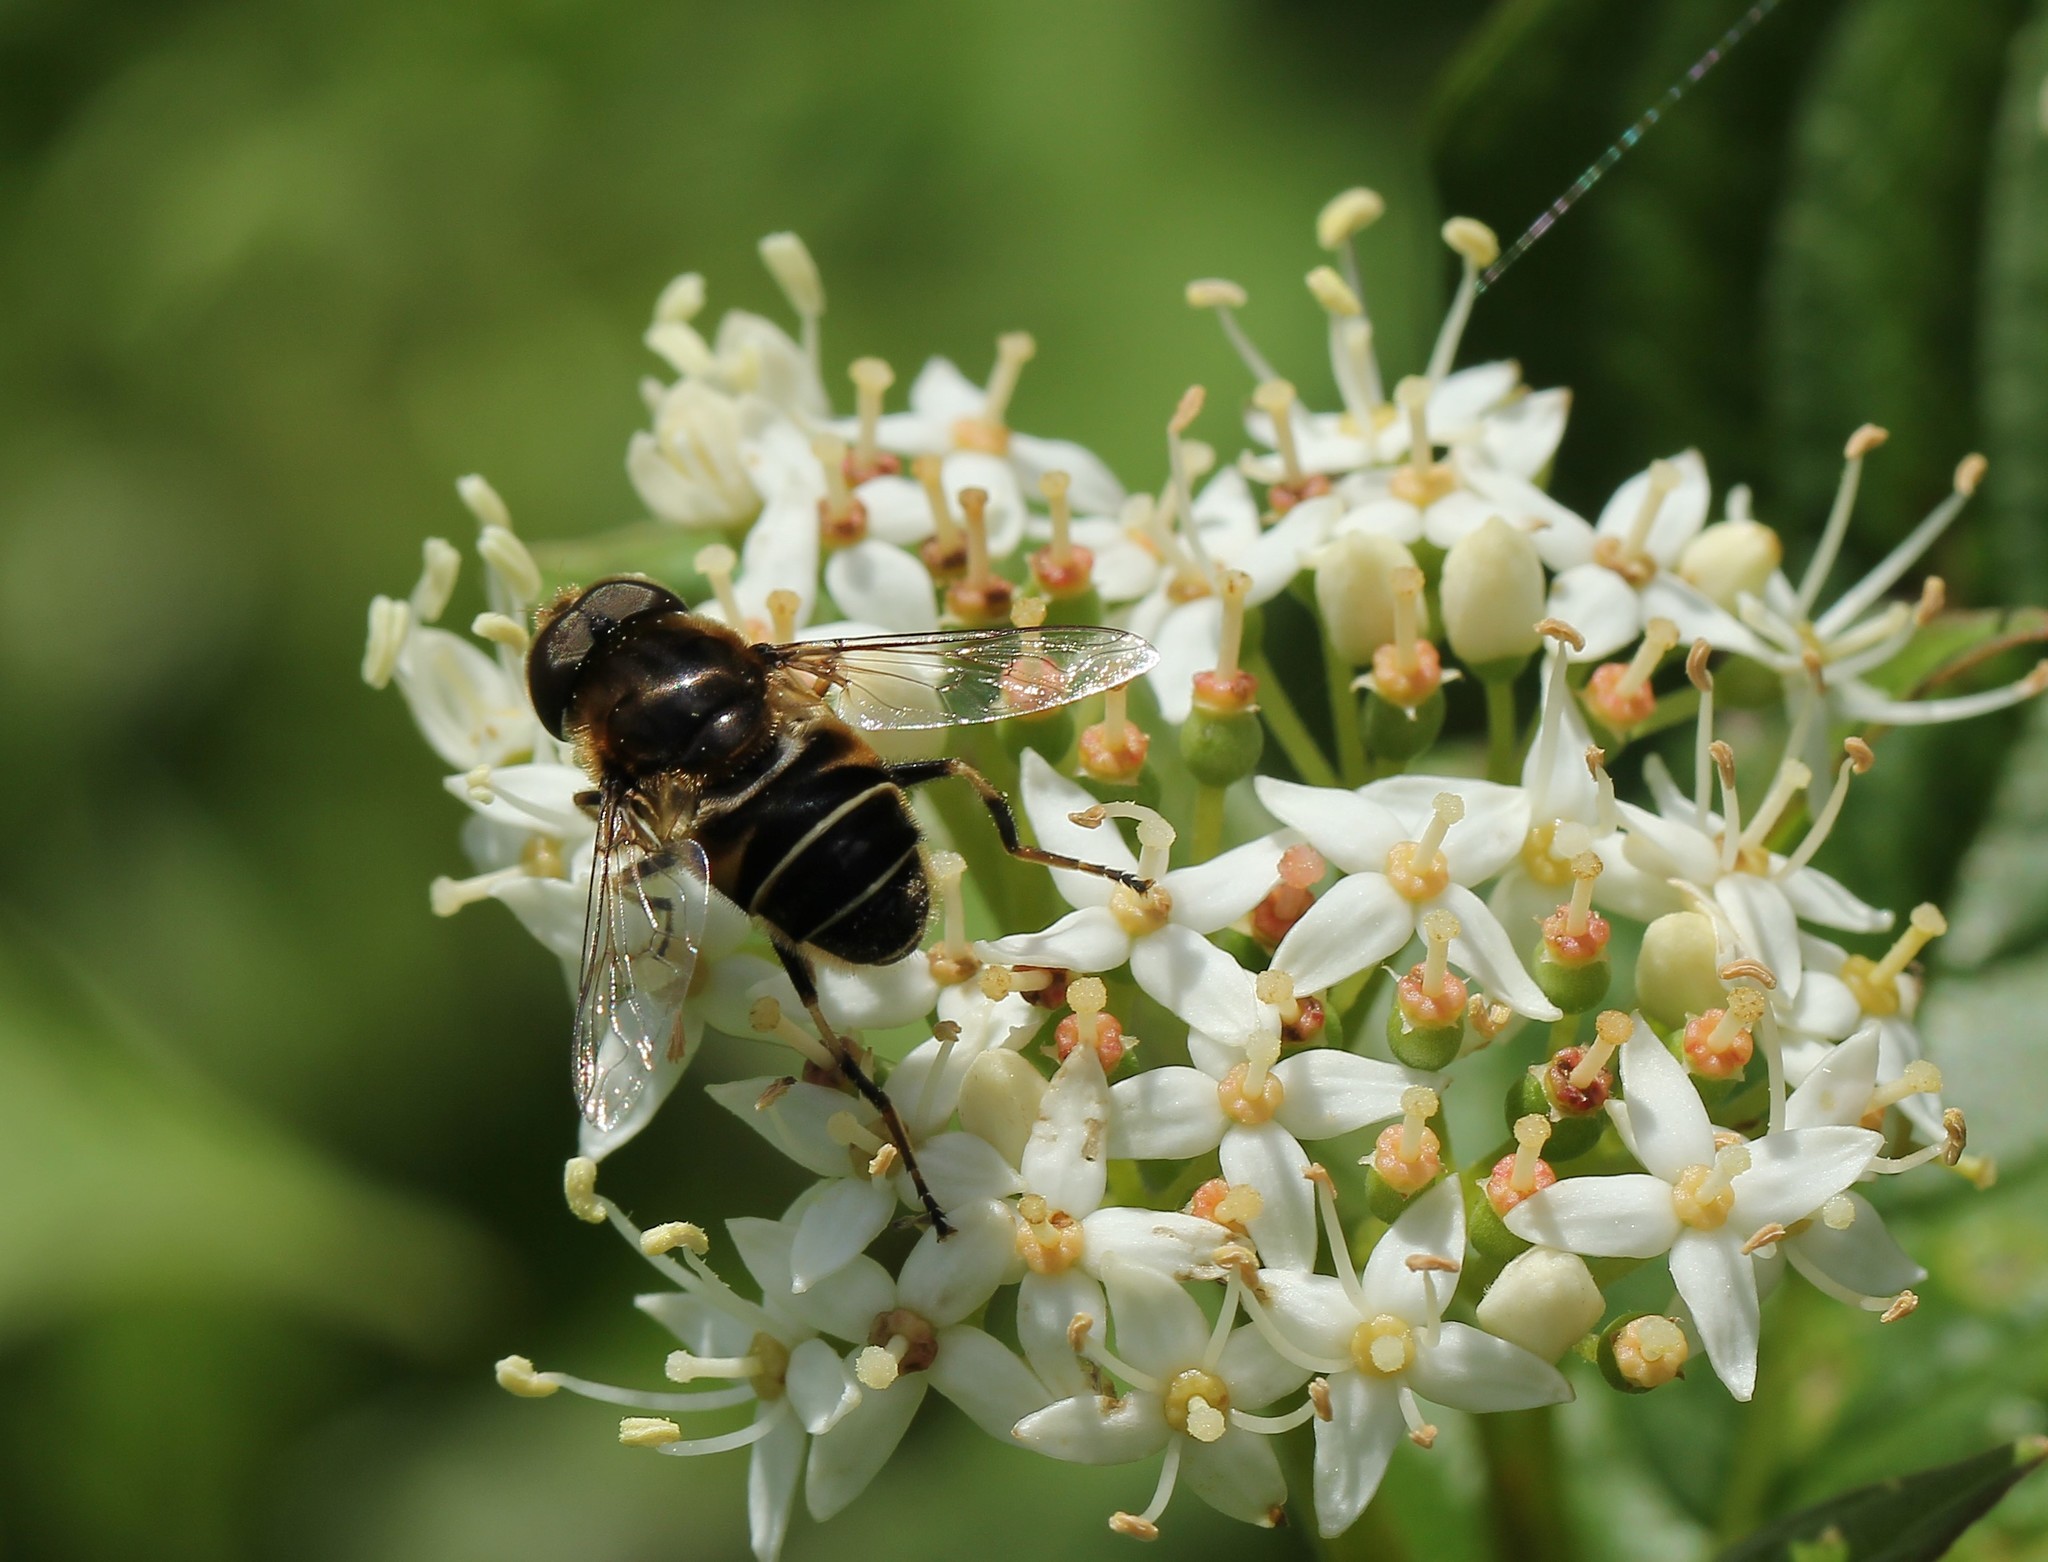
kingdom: Animalia
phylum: Arthropoda
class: Insecta
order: Diptera
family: Syrphidae
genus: Eristalis
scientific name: Eristalis obscura
